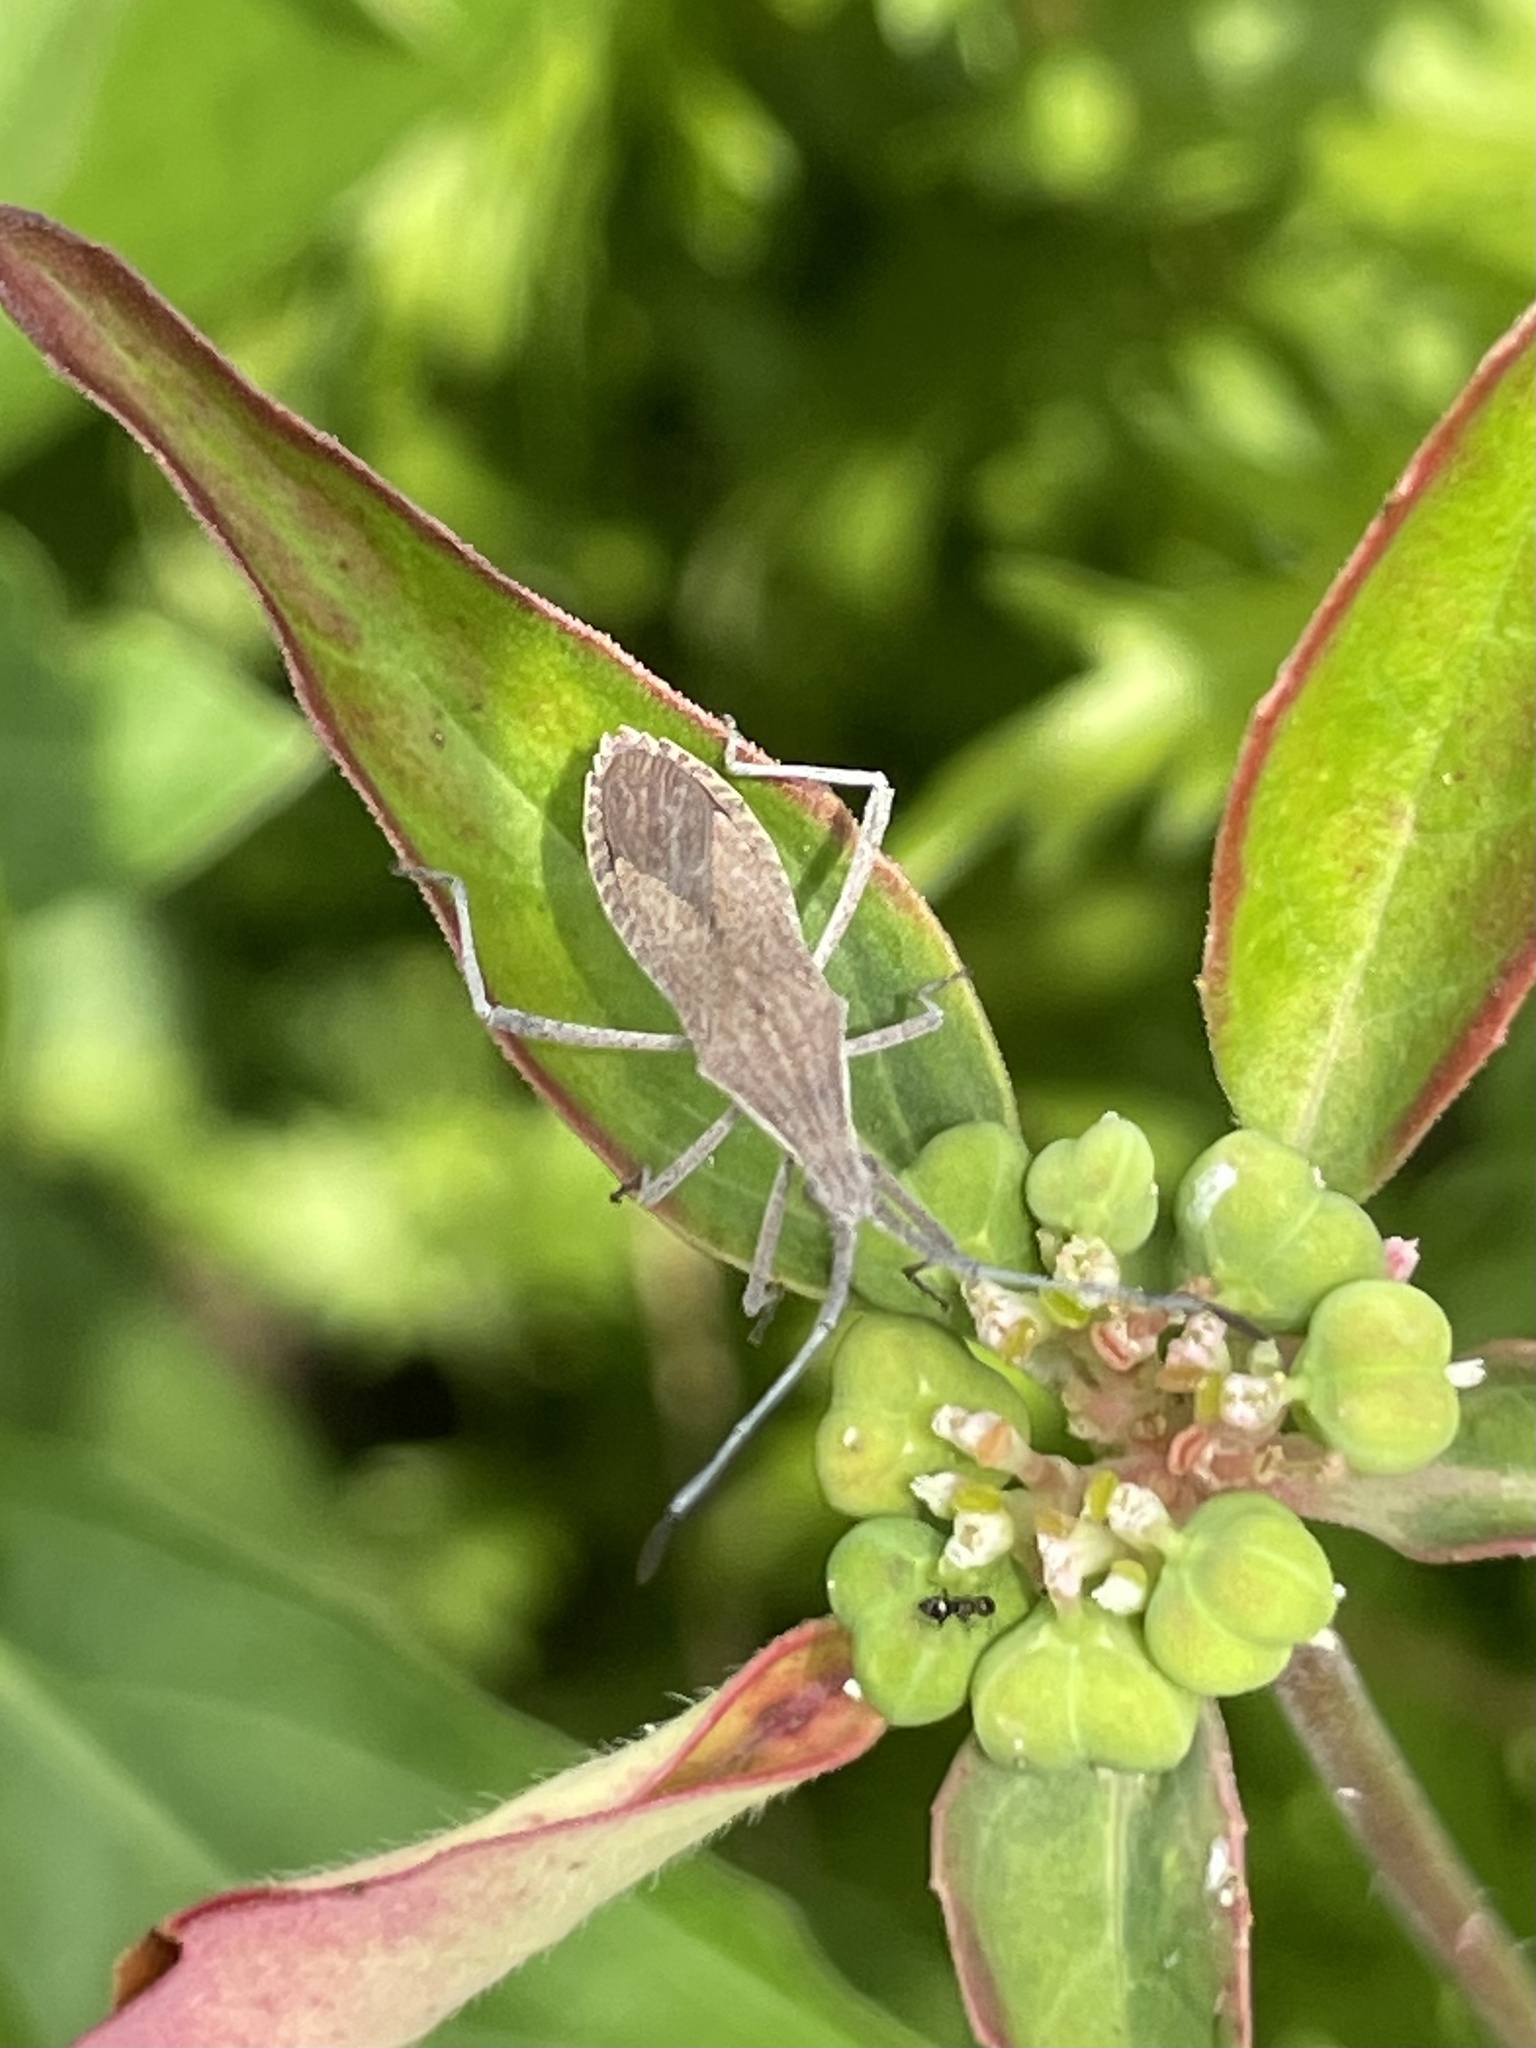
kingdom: Animalia
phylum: Arthropoda
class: Insecta
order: Hemiptera
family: Coreidae
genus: Chariesterus
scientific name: Chariesterus antennator
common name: Flat horned coreid
